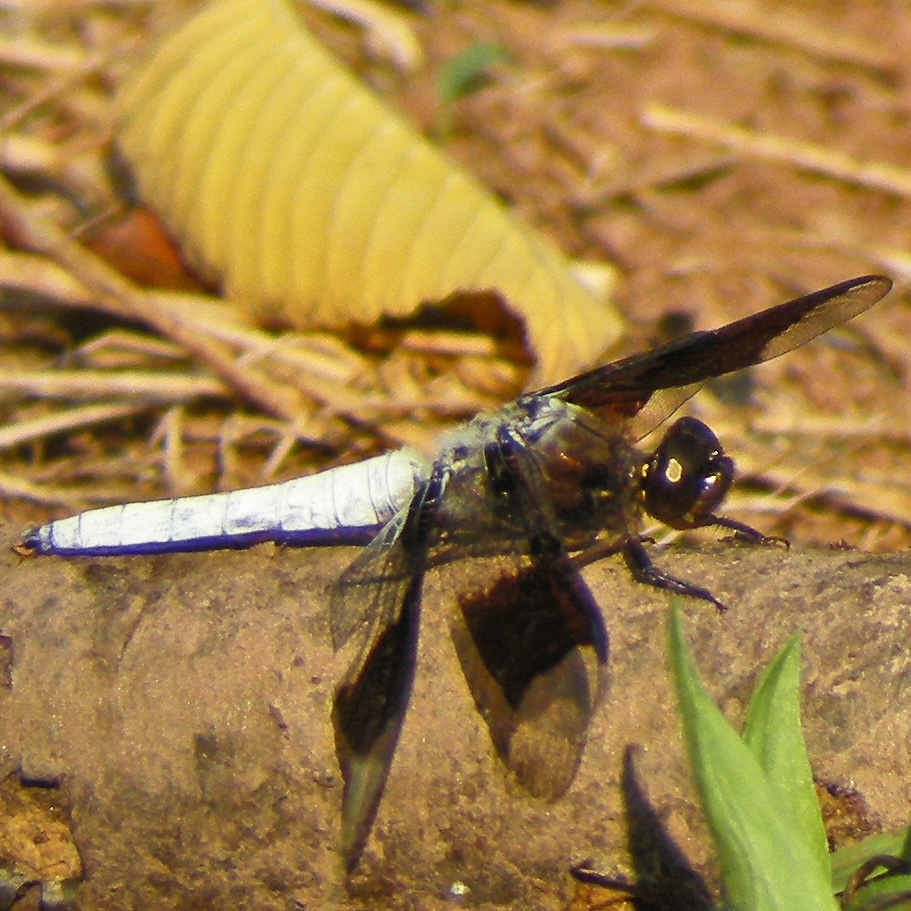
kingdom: Animalia
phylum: Arthropoda
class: Insecta
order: Odonata
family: Libellulidae
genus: Plathemis
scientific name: Plathemis lydia
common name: Common whitetail
